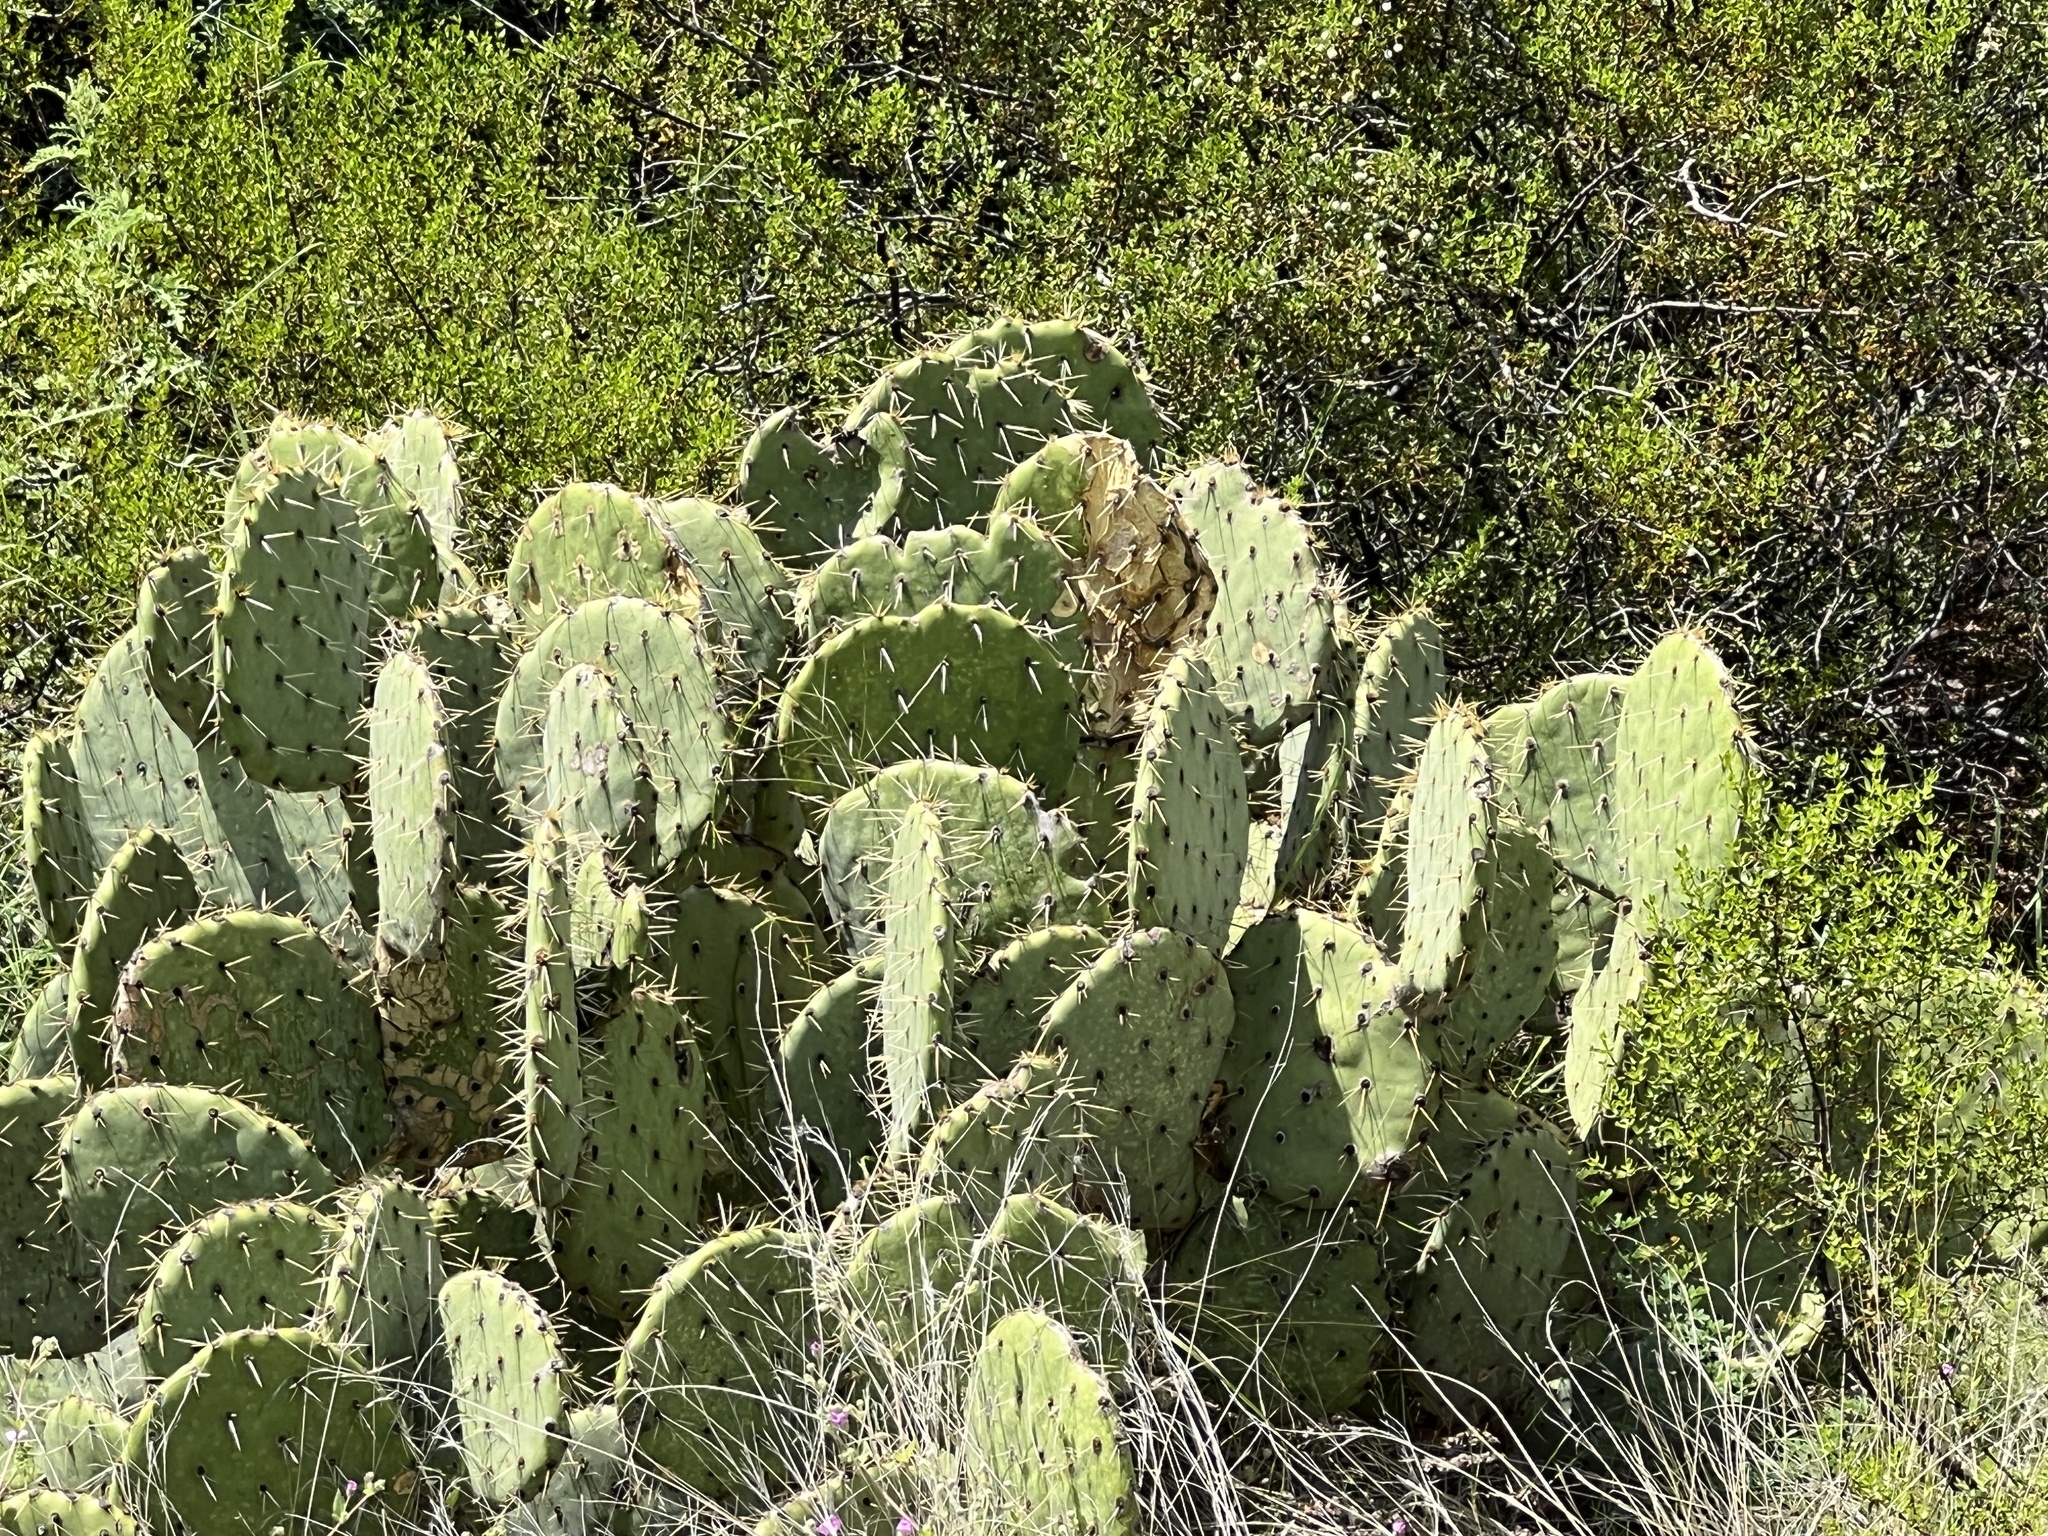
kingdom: Plantae
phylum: Tracheophyta
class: Magnoliopsida
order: Caryophyllales
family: Cactaceae
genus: Opuntia
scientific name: Opuntia phaeacantha
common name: New mexico prickly-pear
